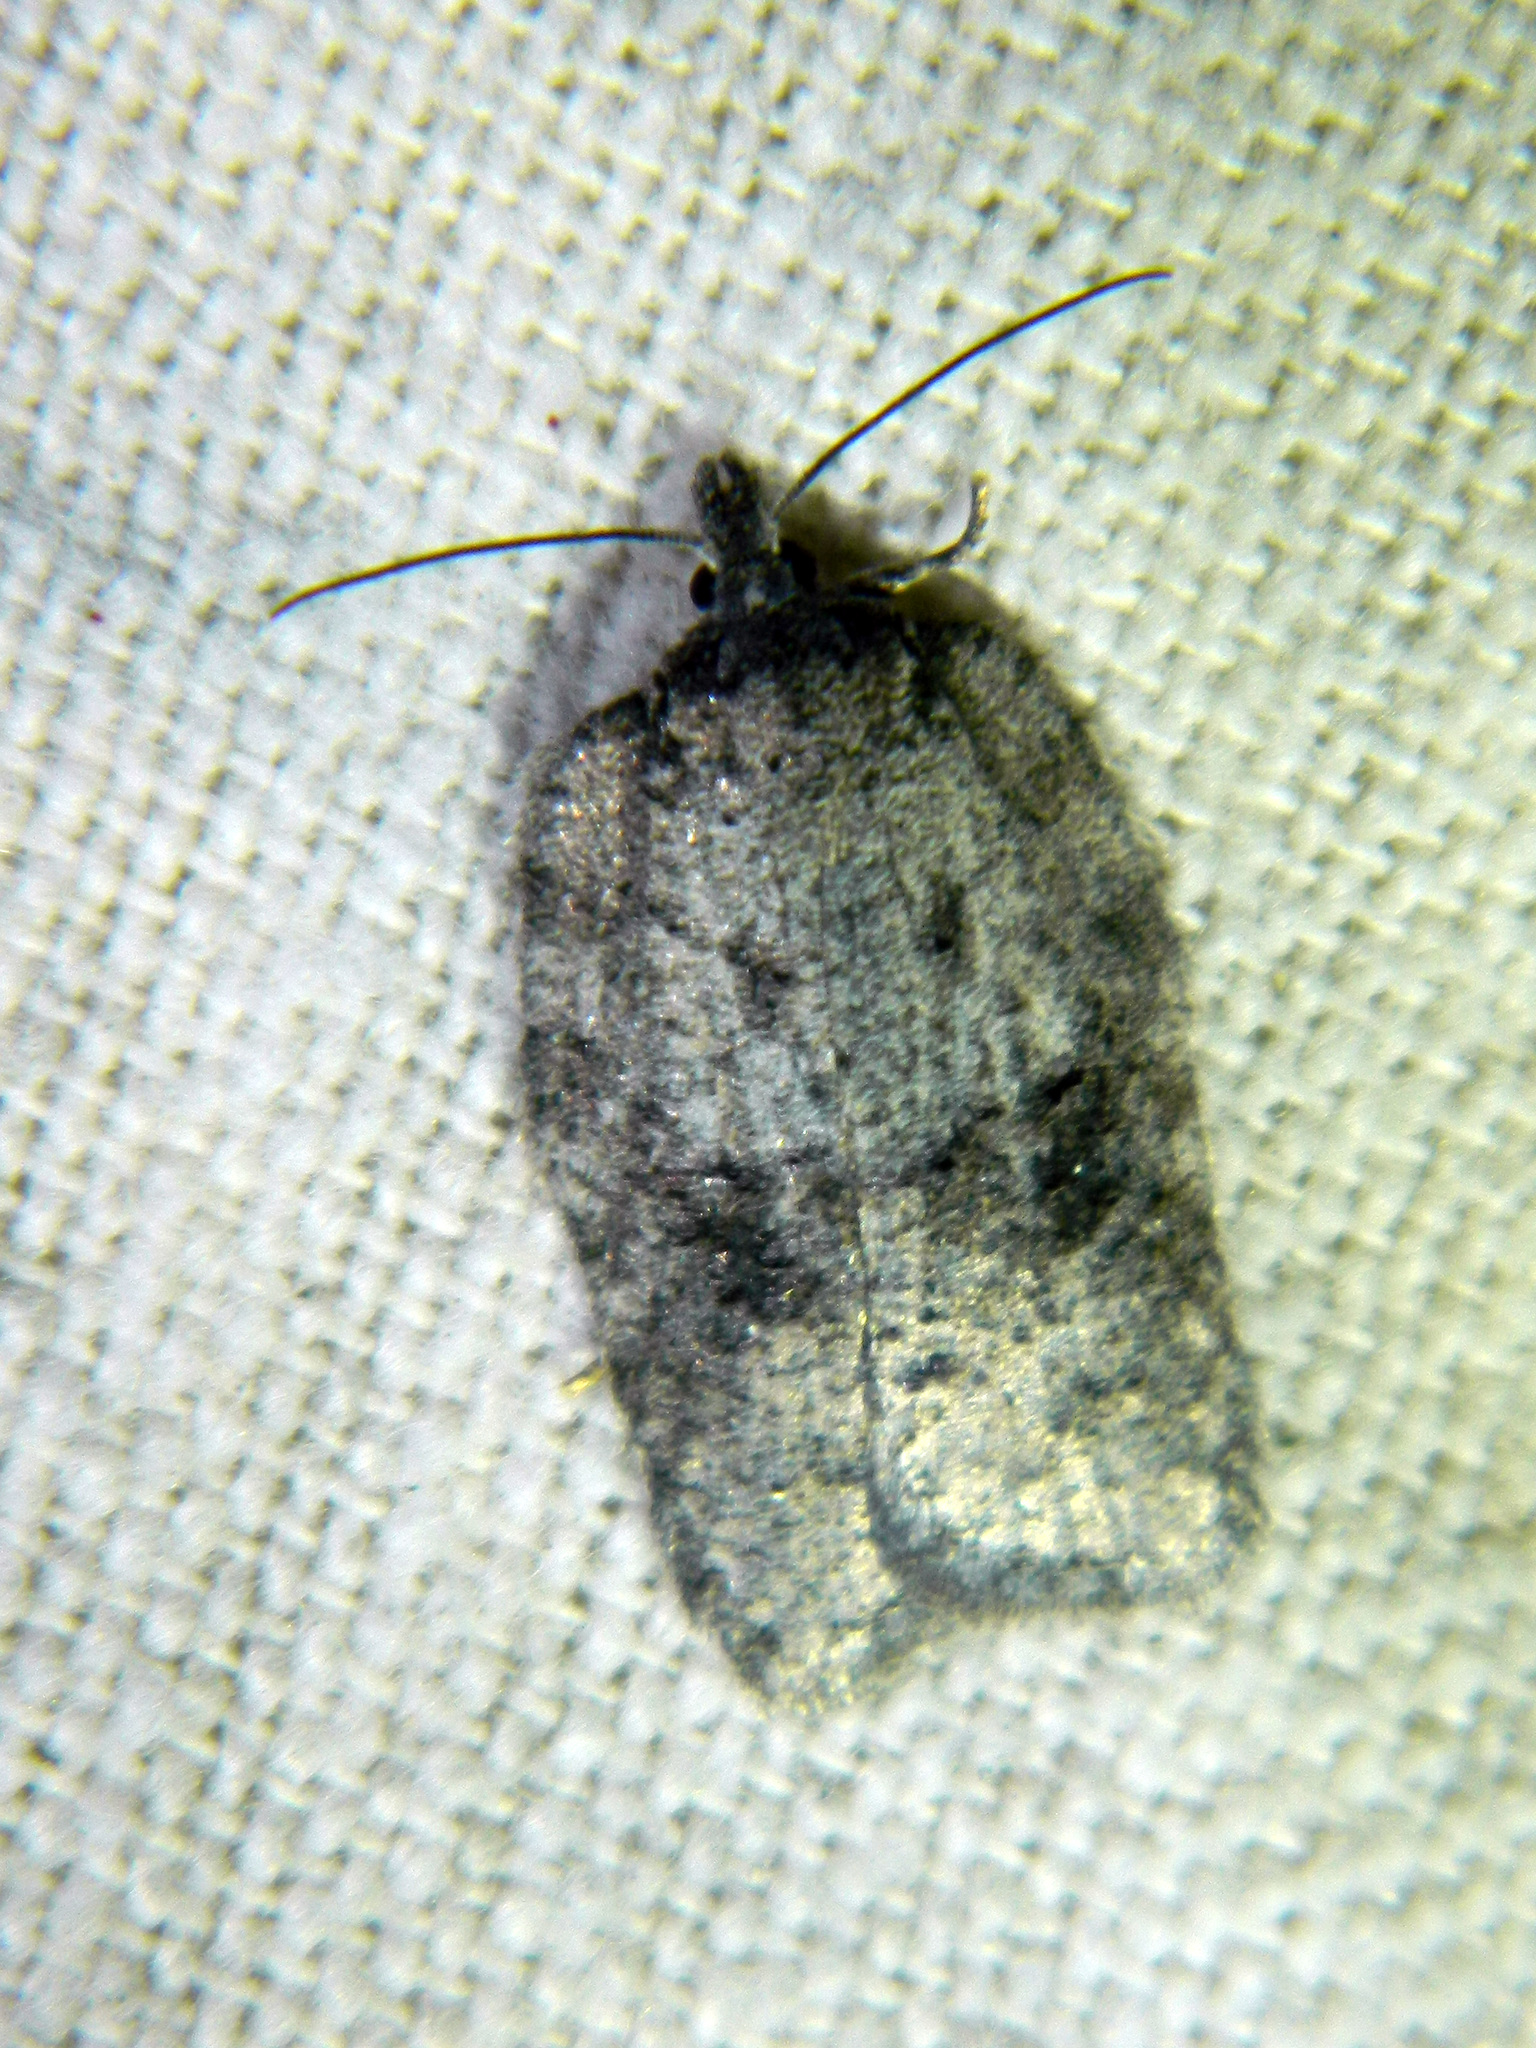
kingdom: Animalia
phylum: Arthropoda
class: Insecta
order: Lepidoptera
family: Tortricidae
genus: Acleris
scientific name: Acleris chalybeana
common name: Lesser maple leafroller
